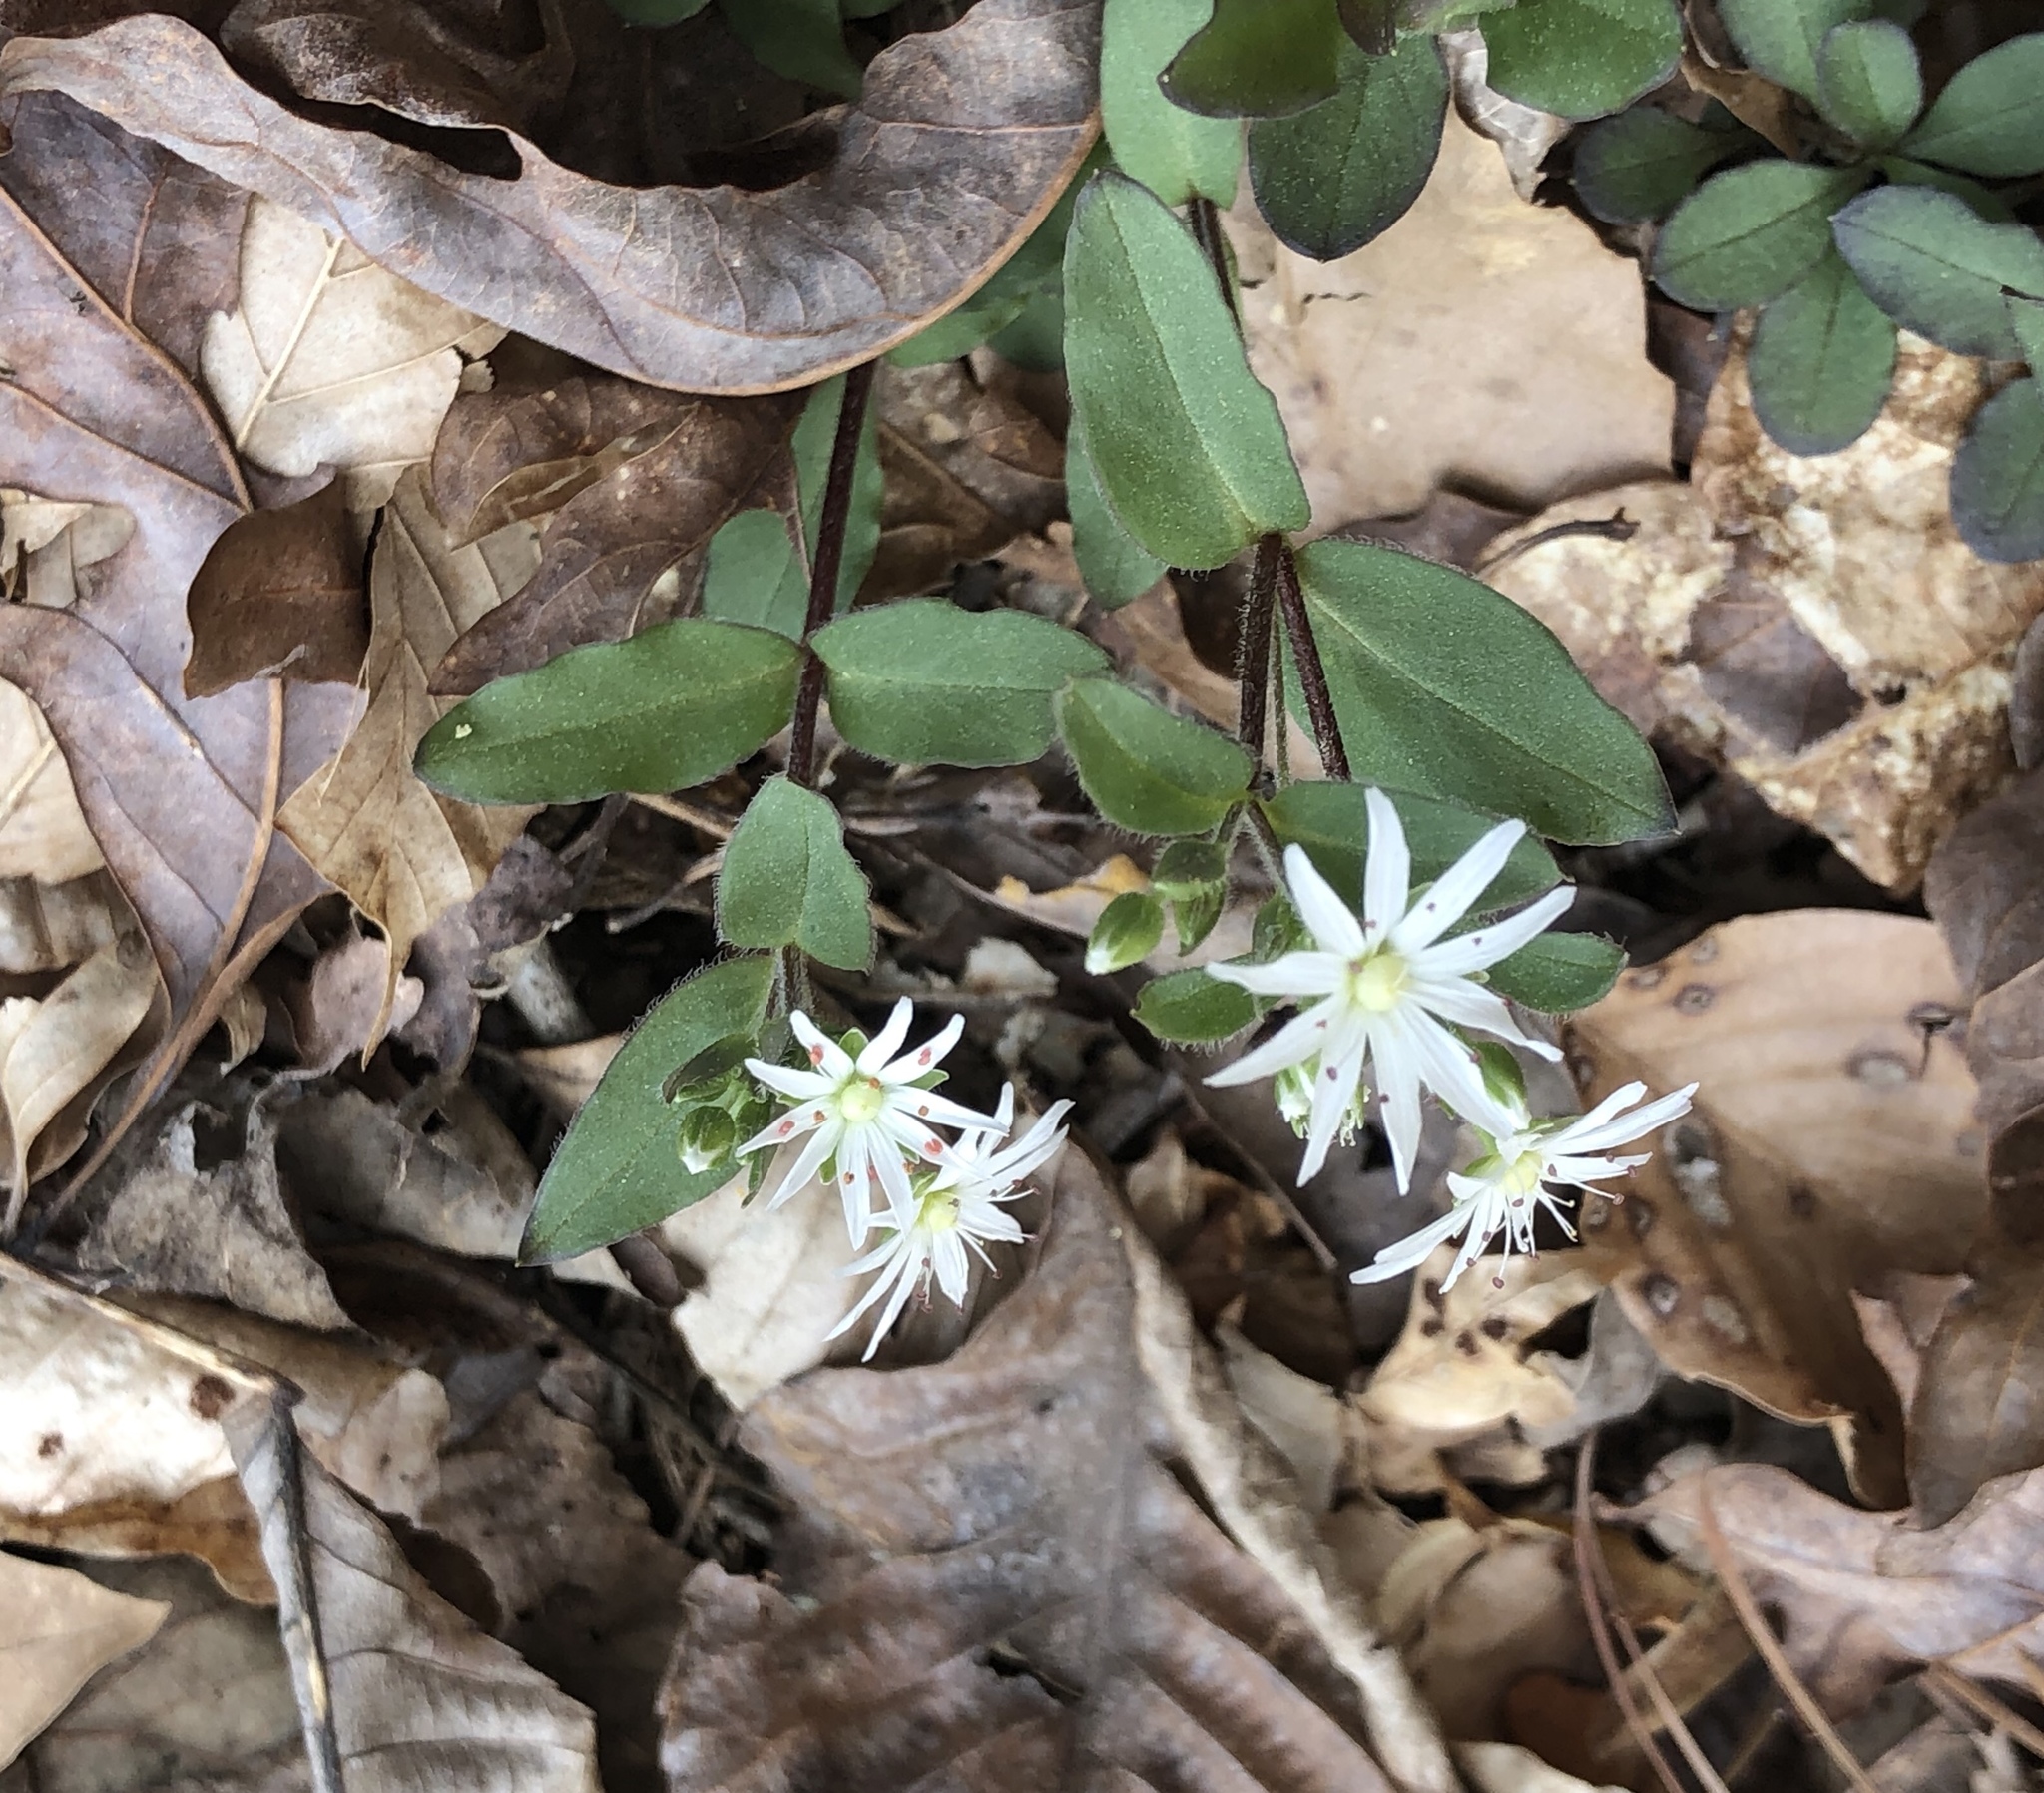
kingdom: Plantae
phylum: Tracheophyta
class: Magnoliopsida
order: Caryophyllales
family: Caryophyllaceae
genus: Stellaria
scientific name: Stellaria pubera
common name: Star chickweed
